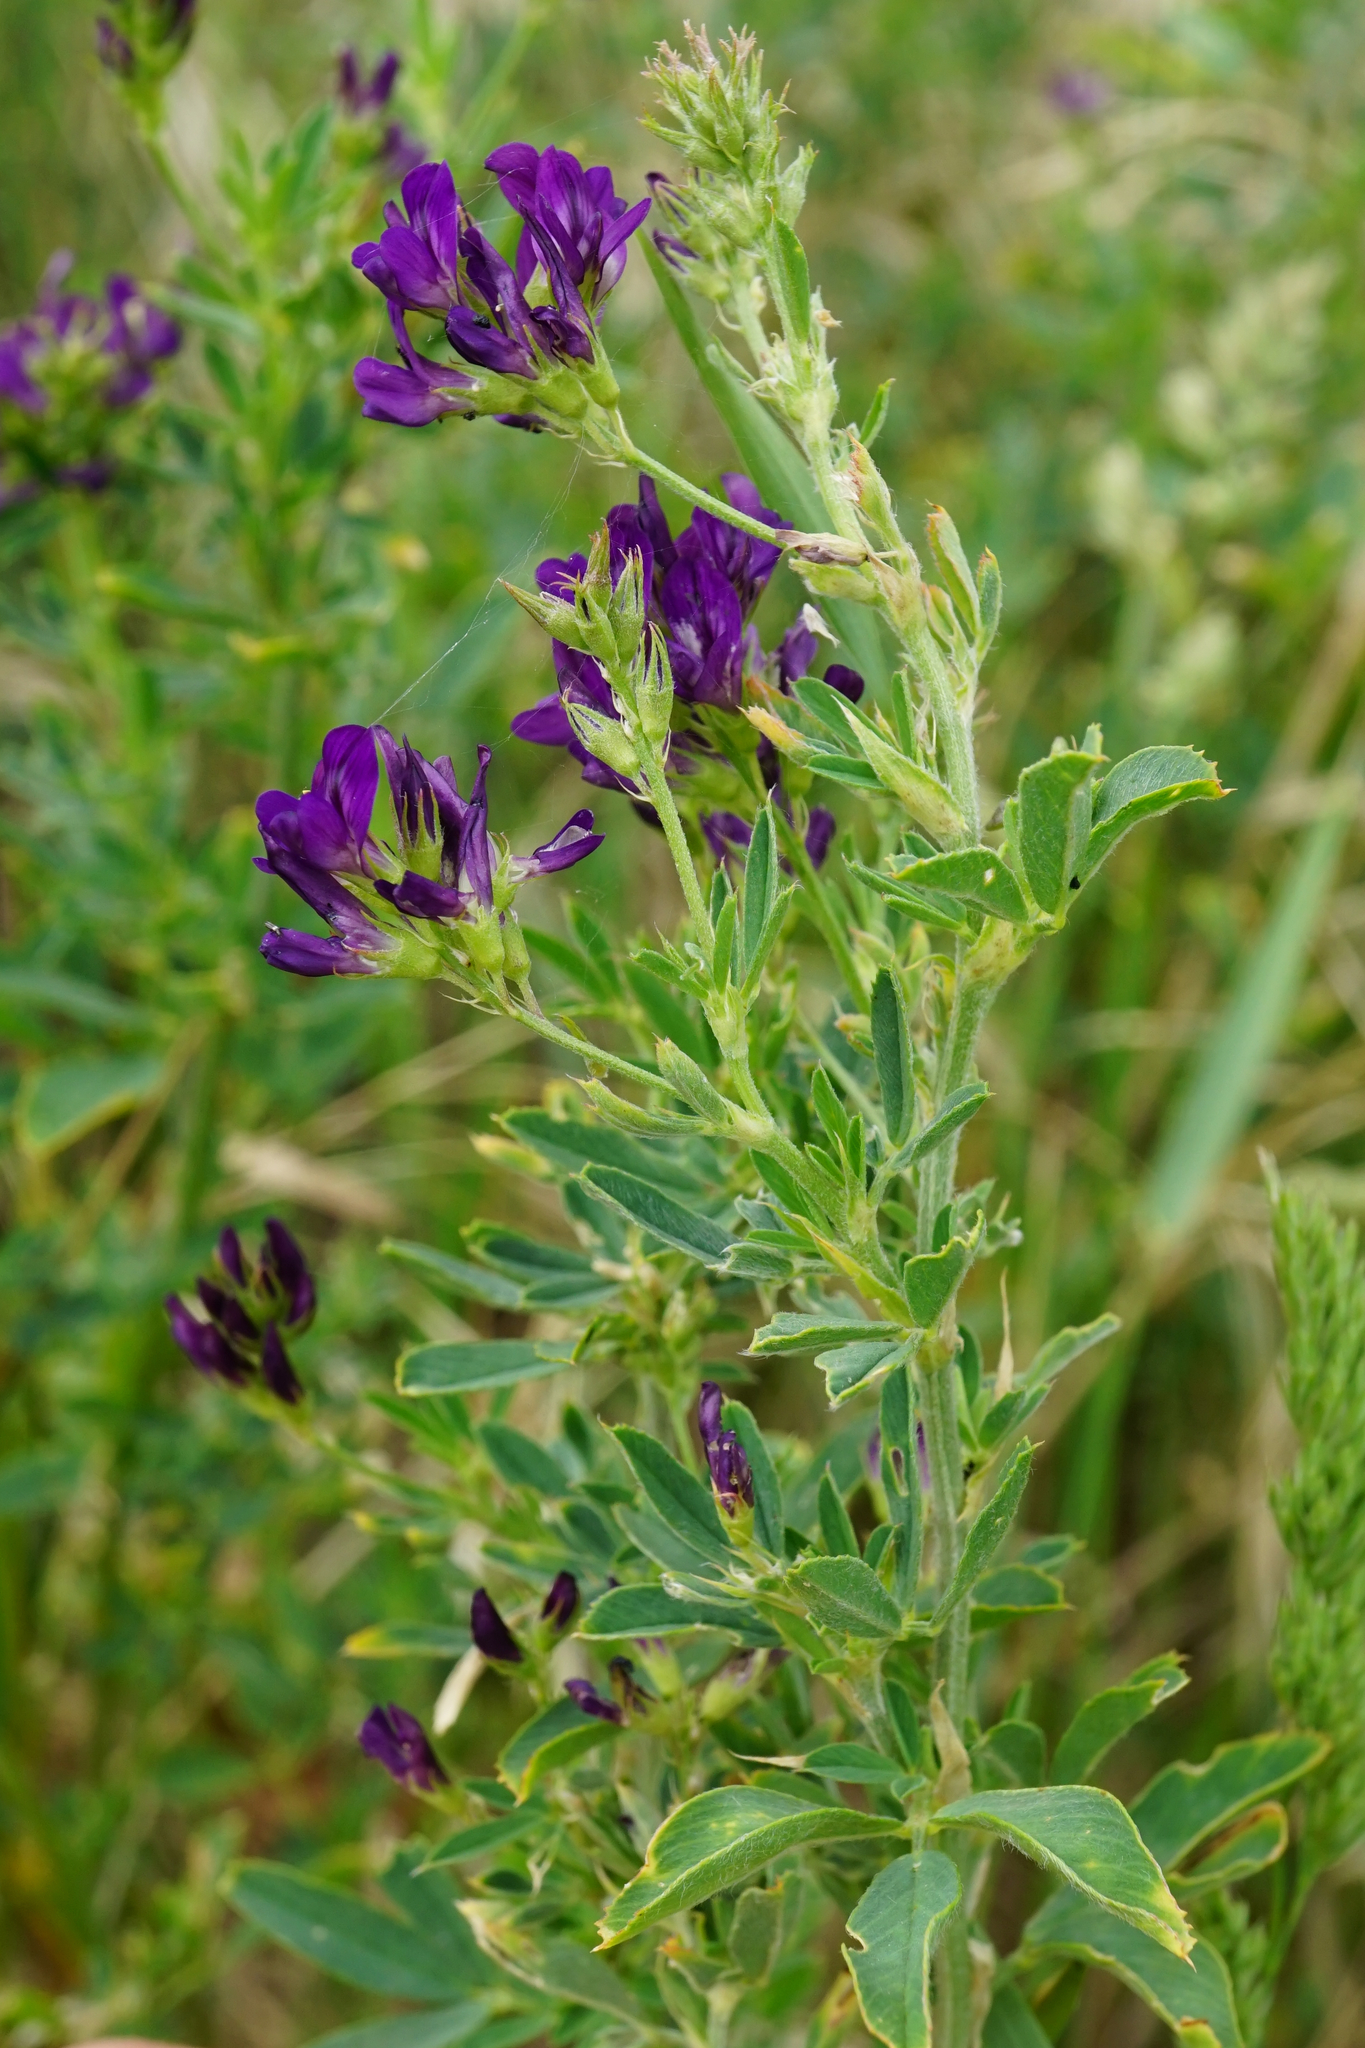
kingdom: Plantae
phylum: Tracheophyta
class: Magnoliopsida
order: Fabales
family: Fabaceae
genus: Medicago
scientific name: Medicago
